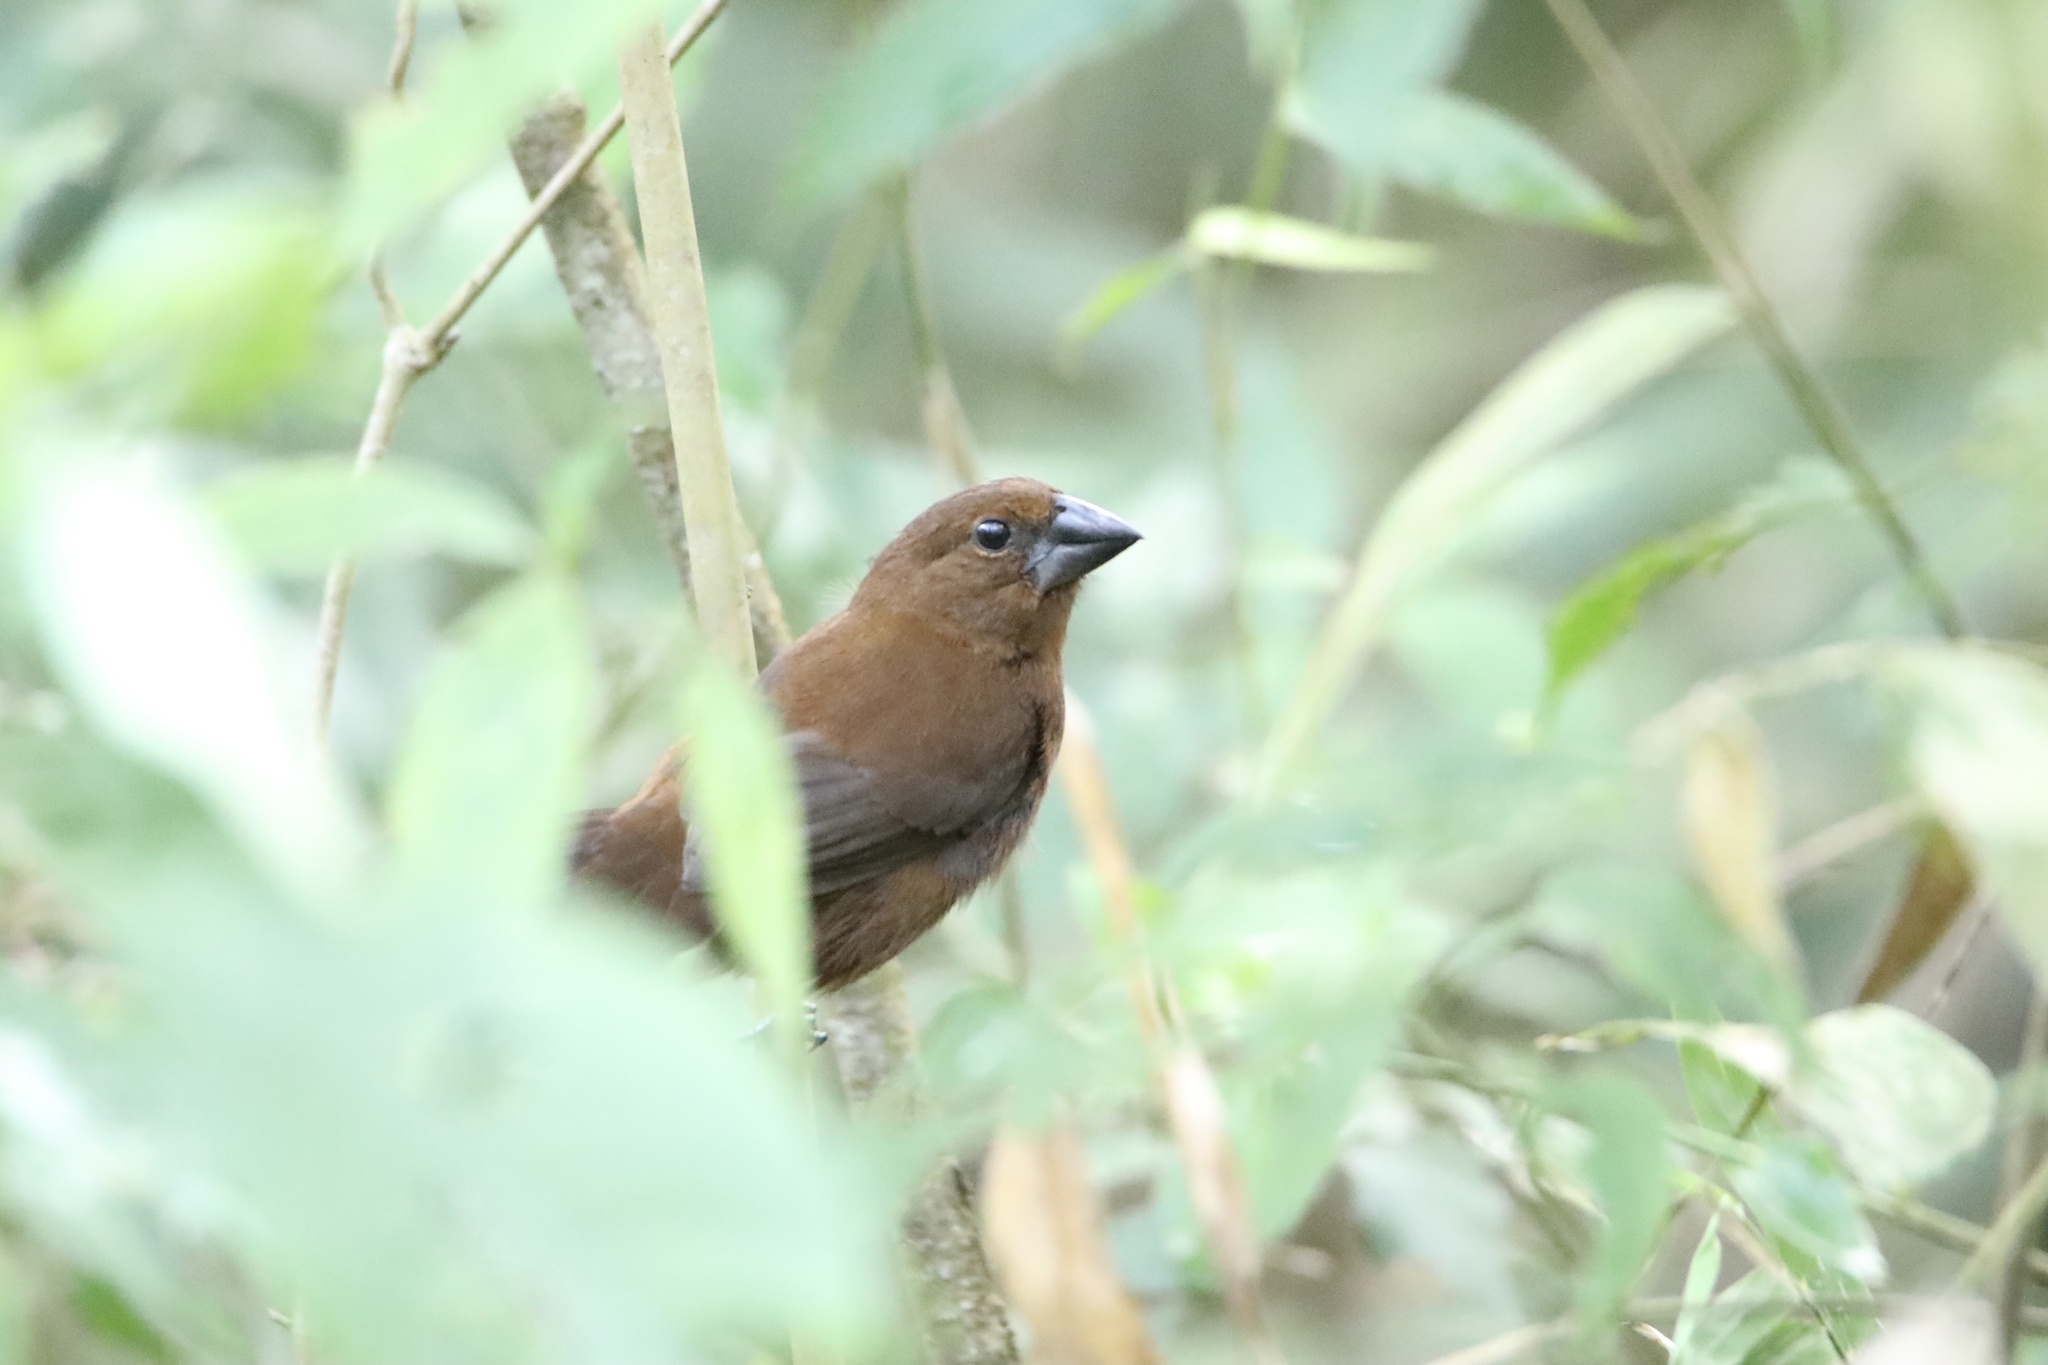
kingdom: Animalia
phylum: Chordata
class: Aves
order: Passeriformes
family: Cardinalidae
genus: Cyanocompsa
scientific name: Cyanocompsa cyanoides
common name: Blue-black grosbeak
